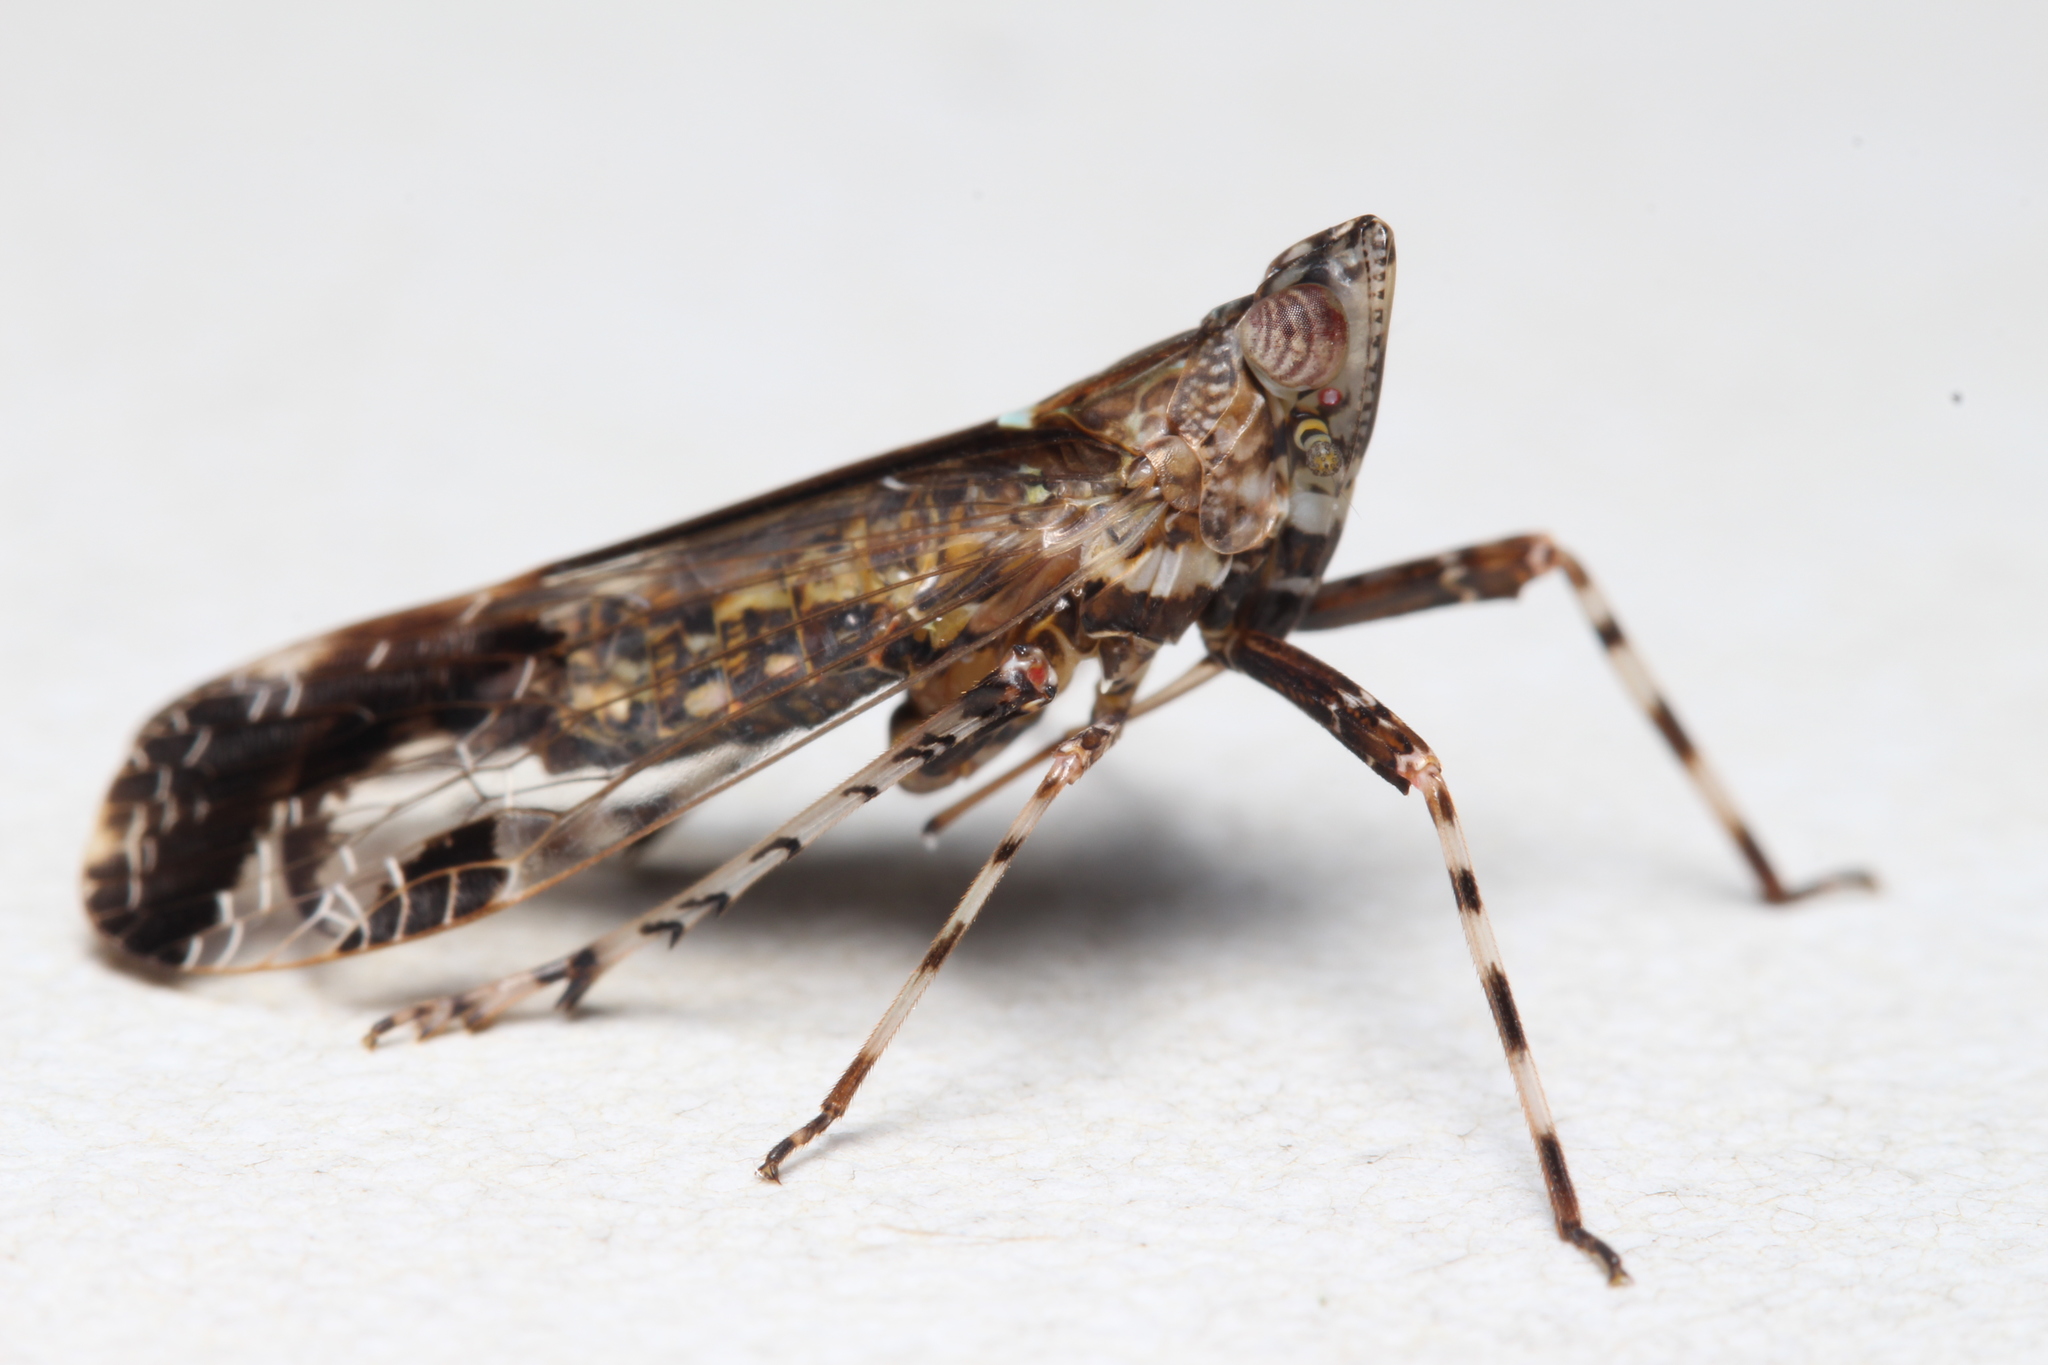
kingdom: Animalia
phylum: Arthropoda
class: Insecta
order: Hemiptera
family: Dictyopharidae
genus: Orthopagus
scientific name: Orthopagus lunulifer
